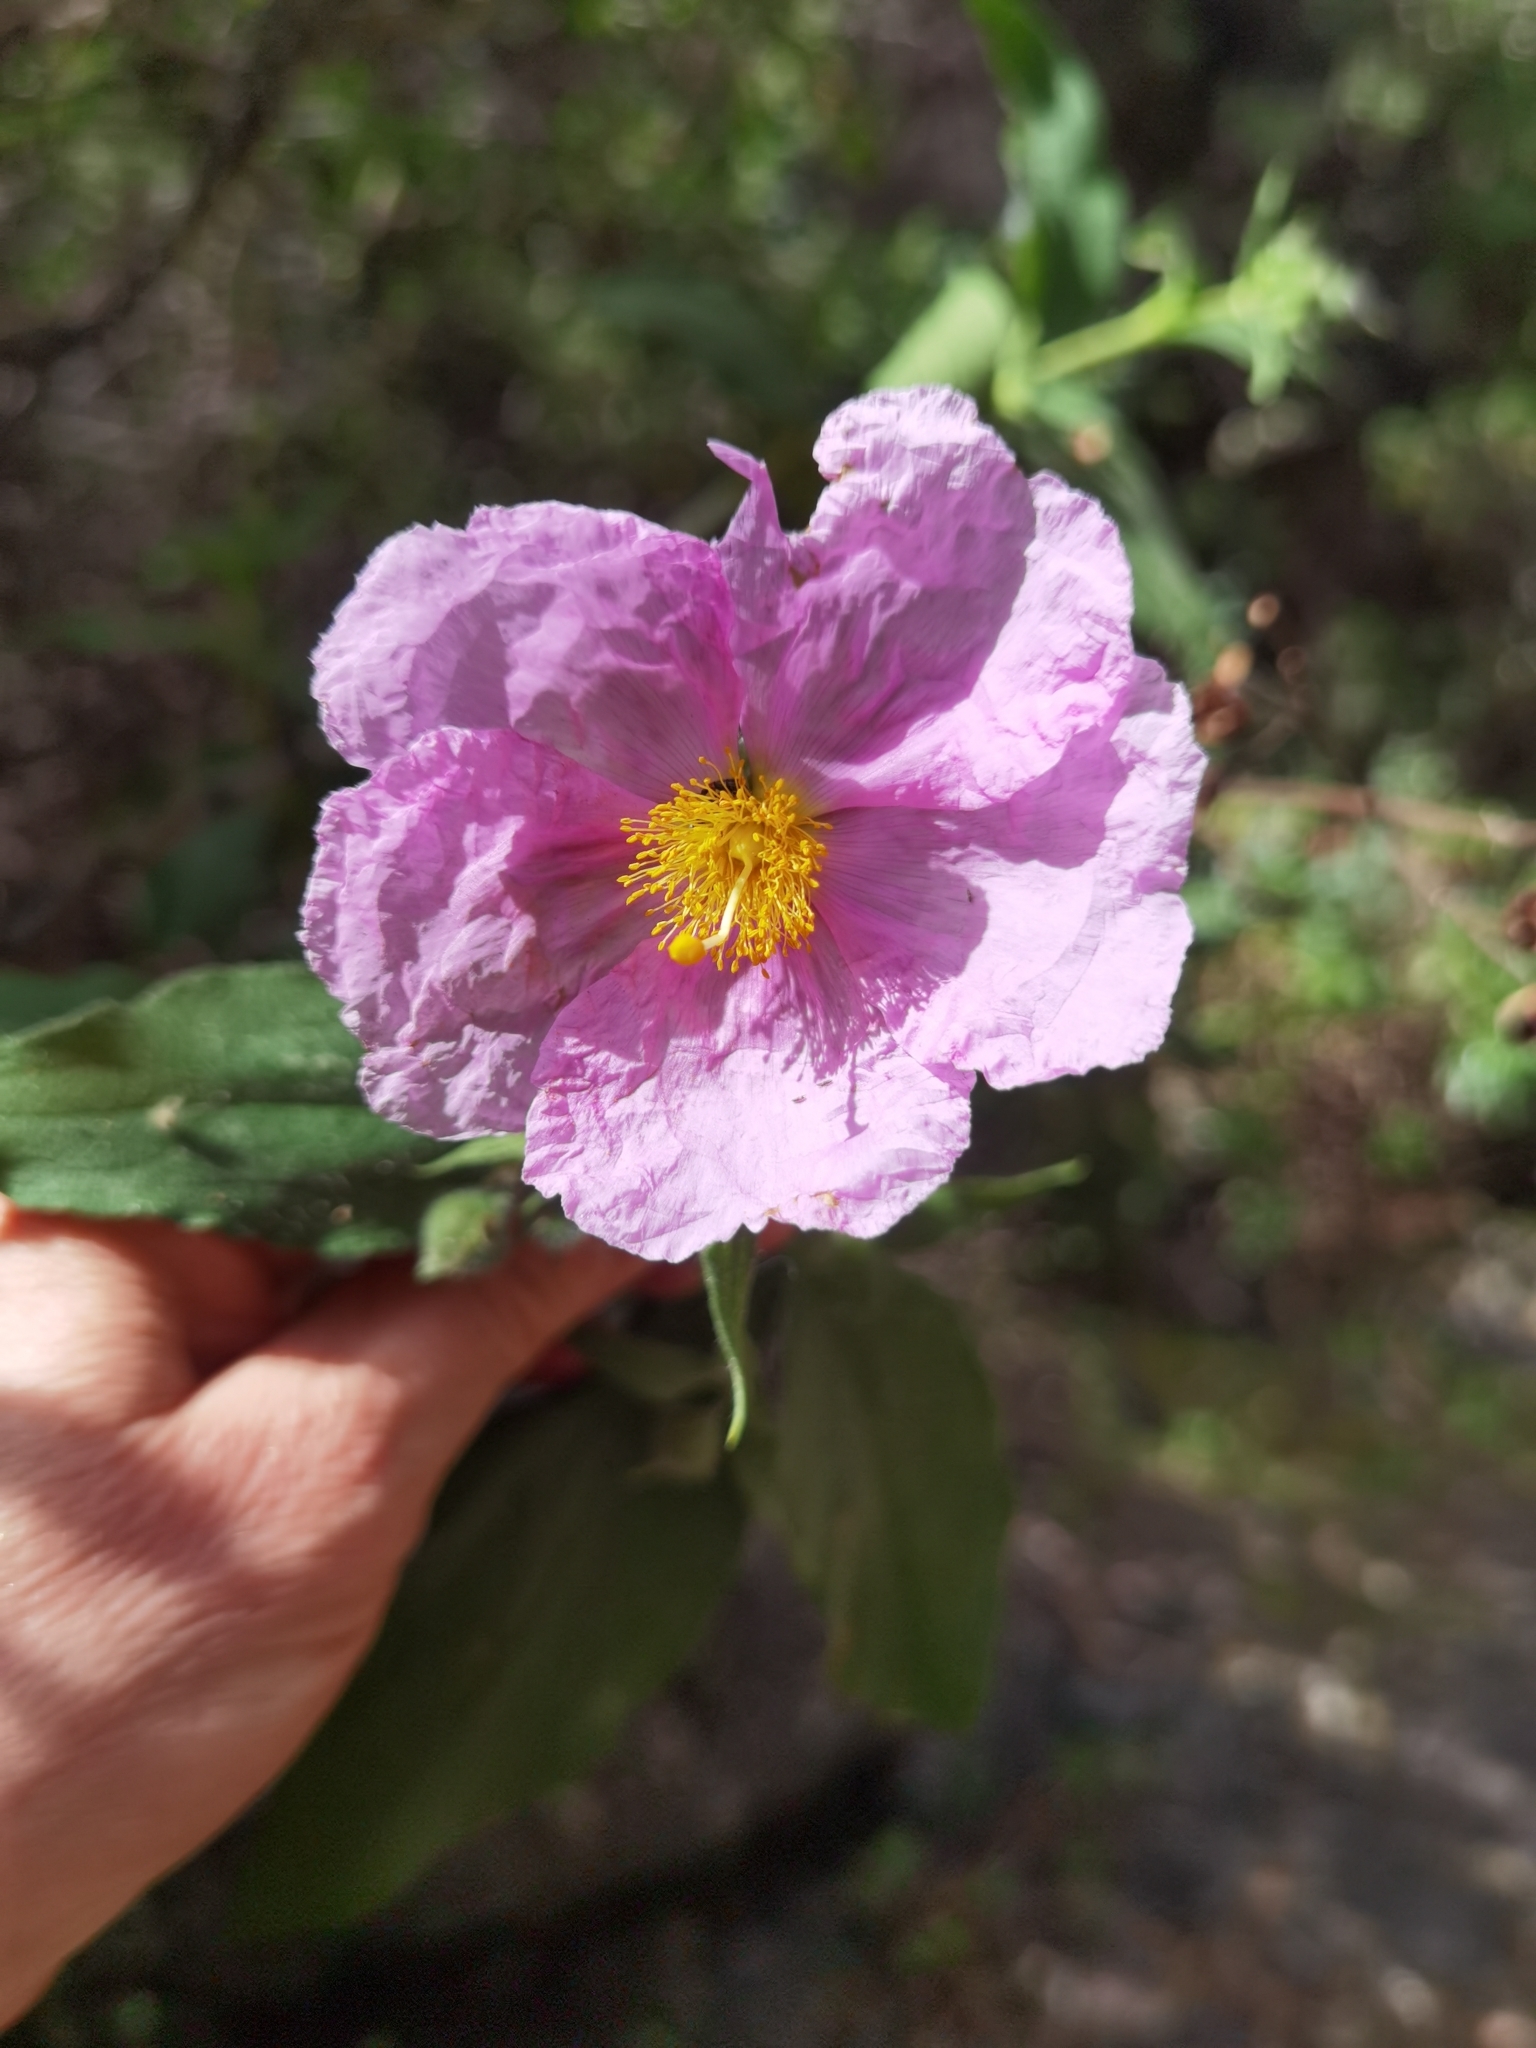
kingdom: Plantae
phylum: Tracheophyta
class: Magnoliopsida
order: Malvales
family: Cistaceae
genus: Cistus
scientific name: Cistus symphytifolius
